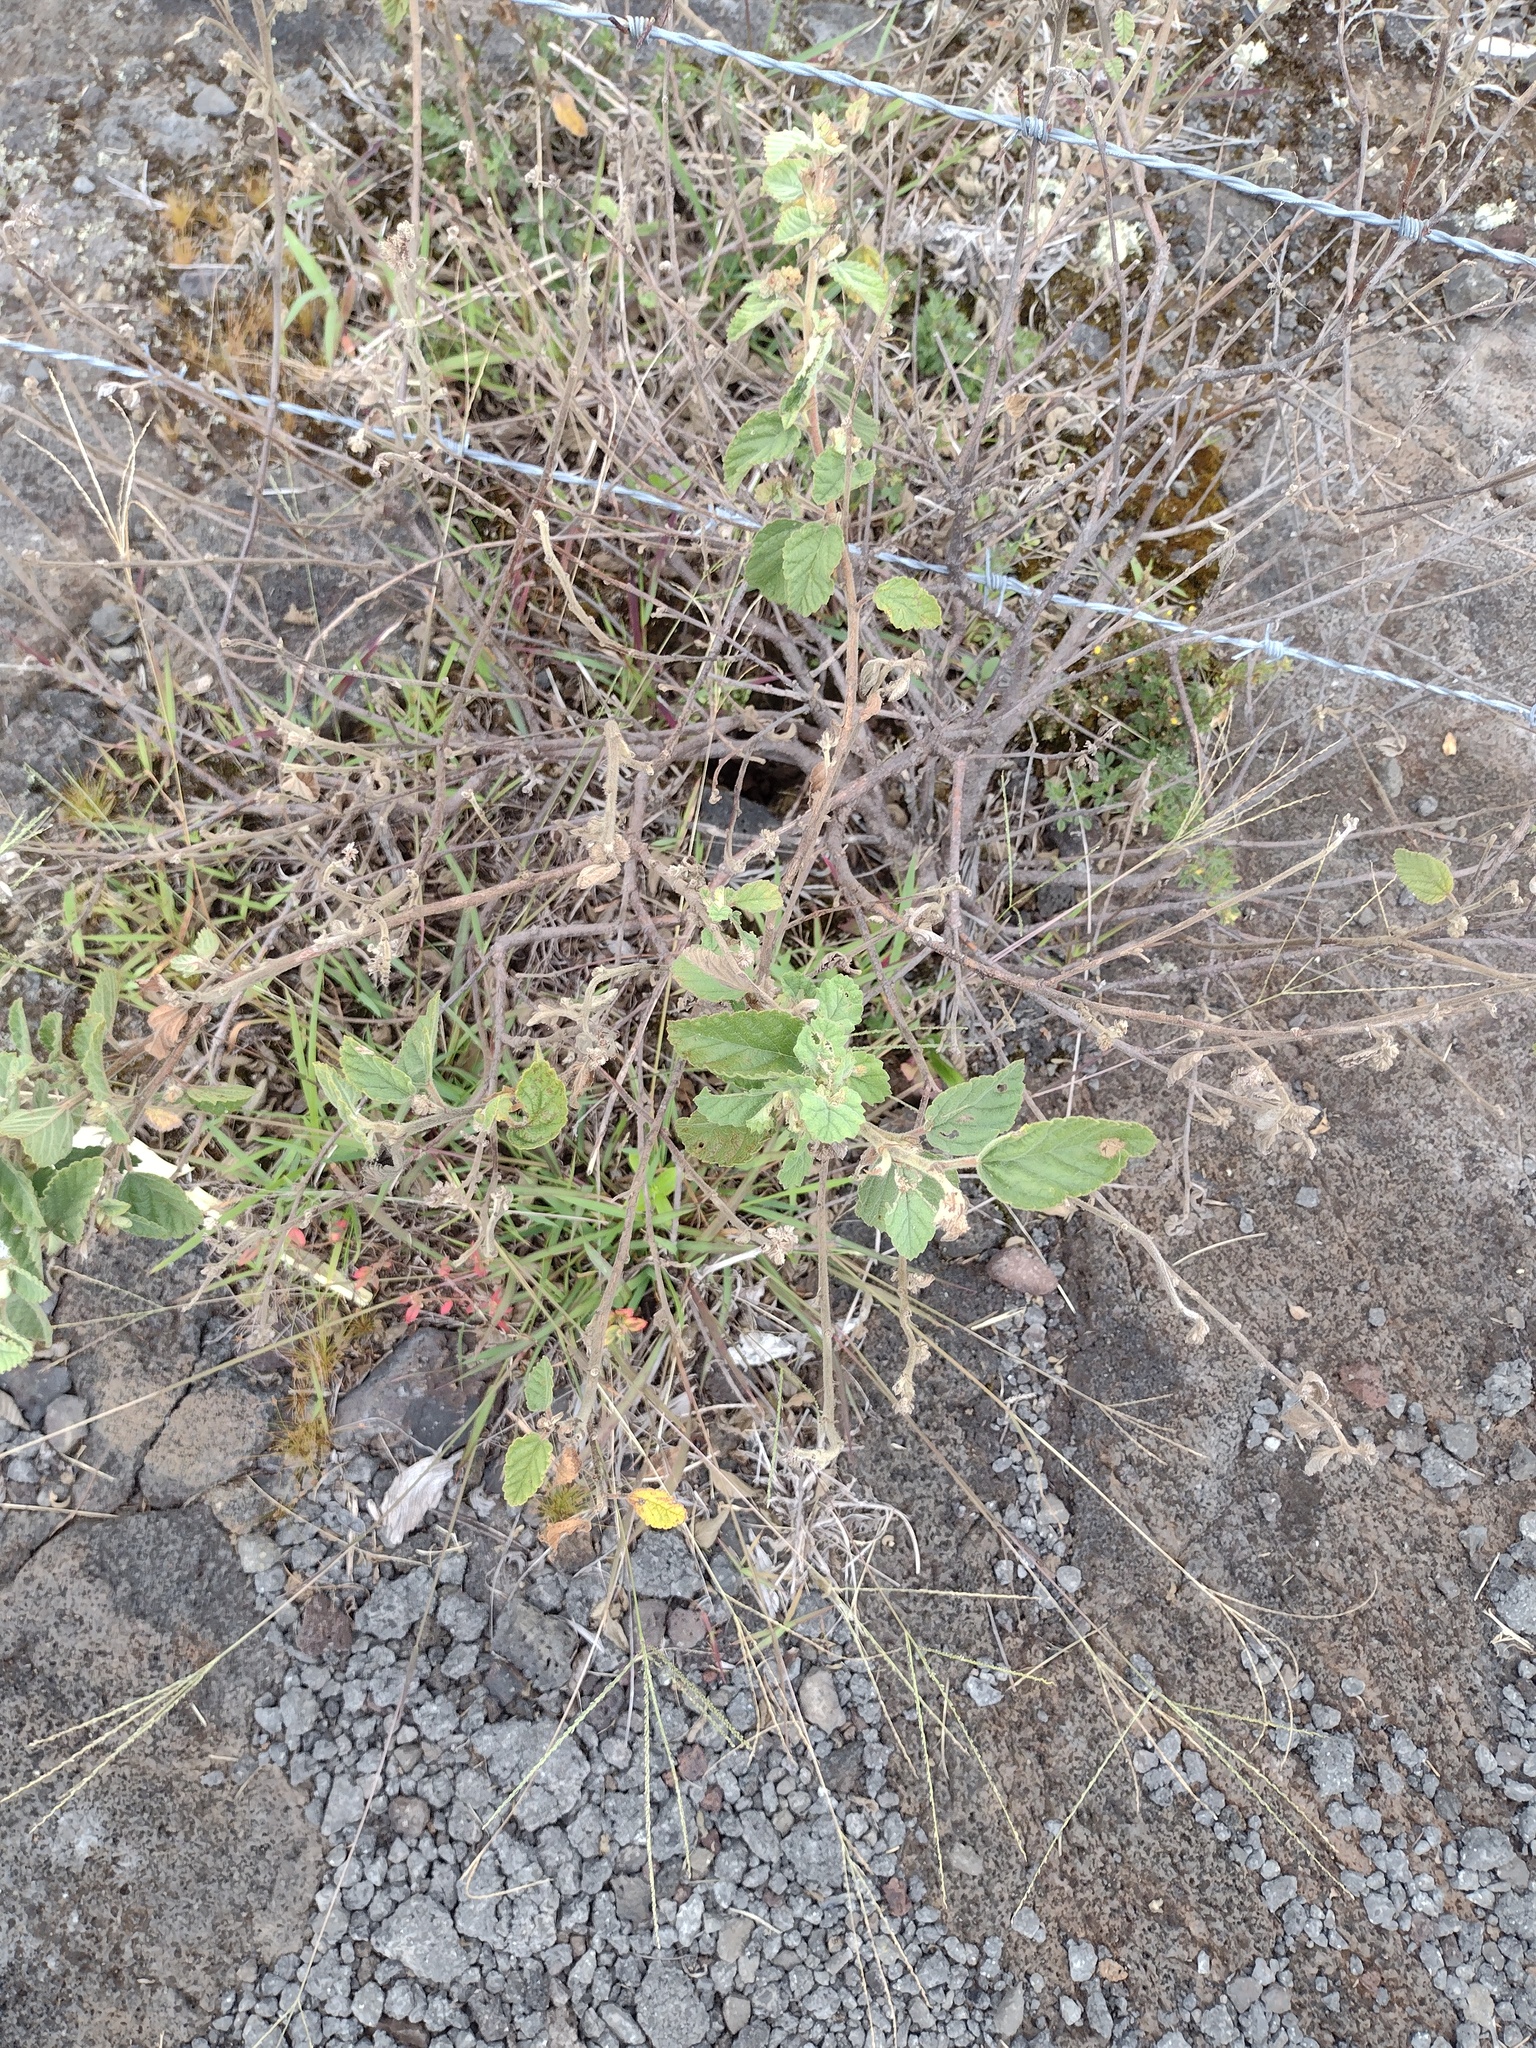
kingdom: Plantae
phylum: Tracheophyta
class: Magnoliopsida
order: Malvales
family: Malvaceae
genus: Waltheria
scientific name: Waltheria indica
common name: Leather-coat
